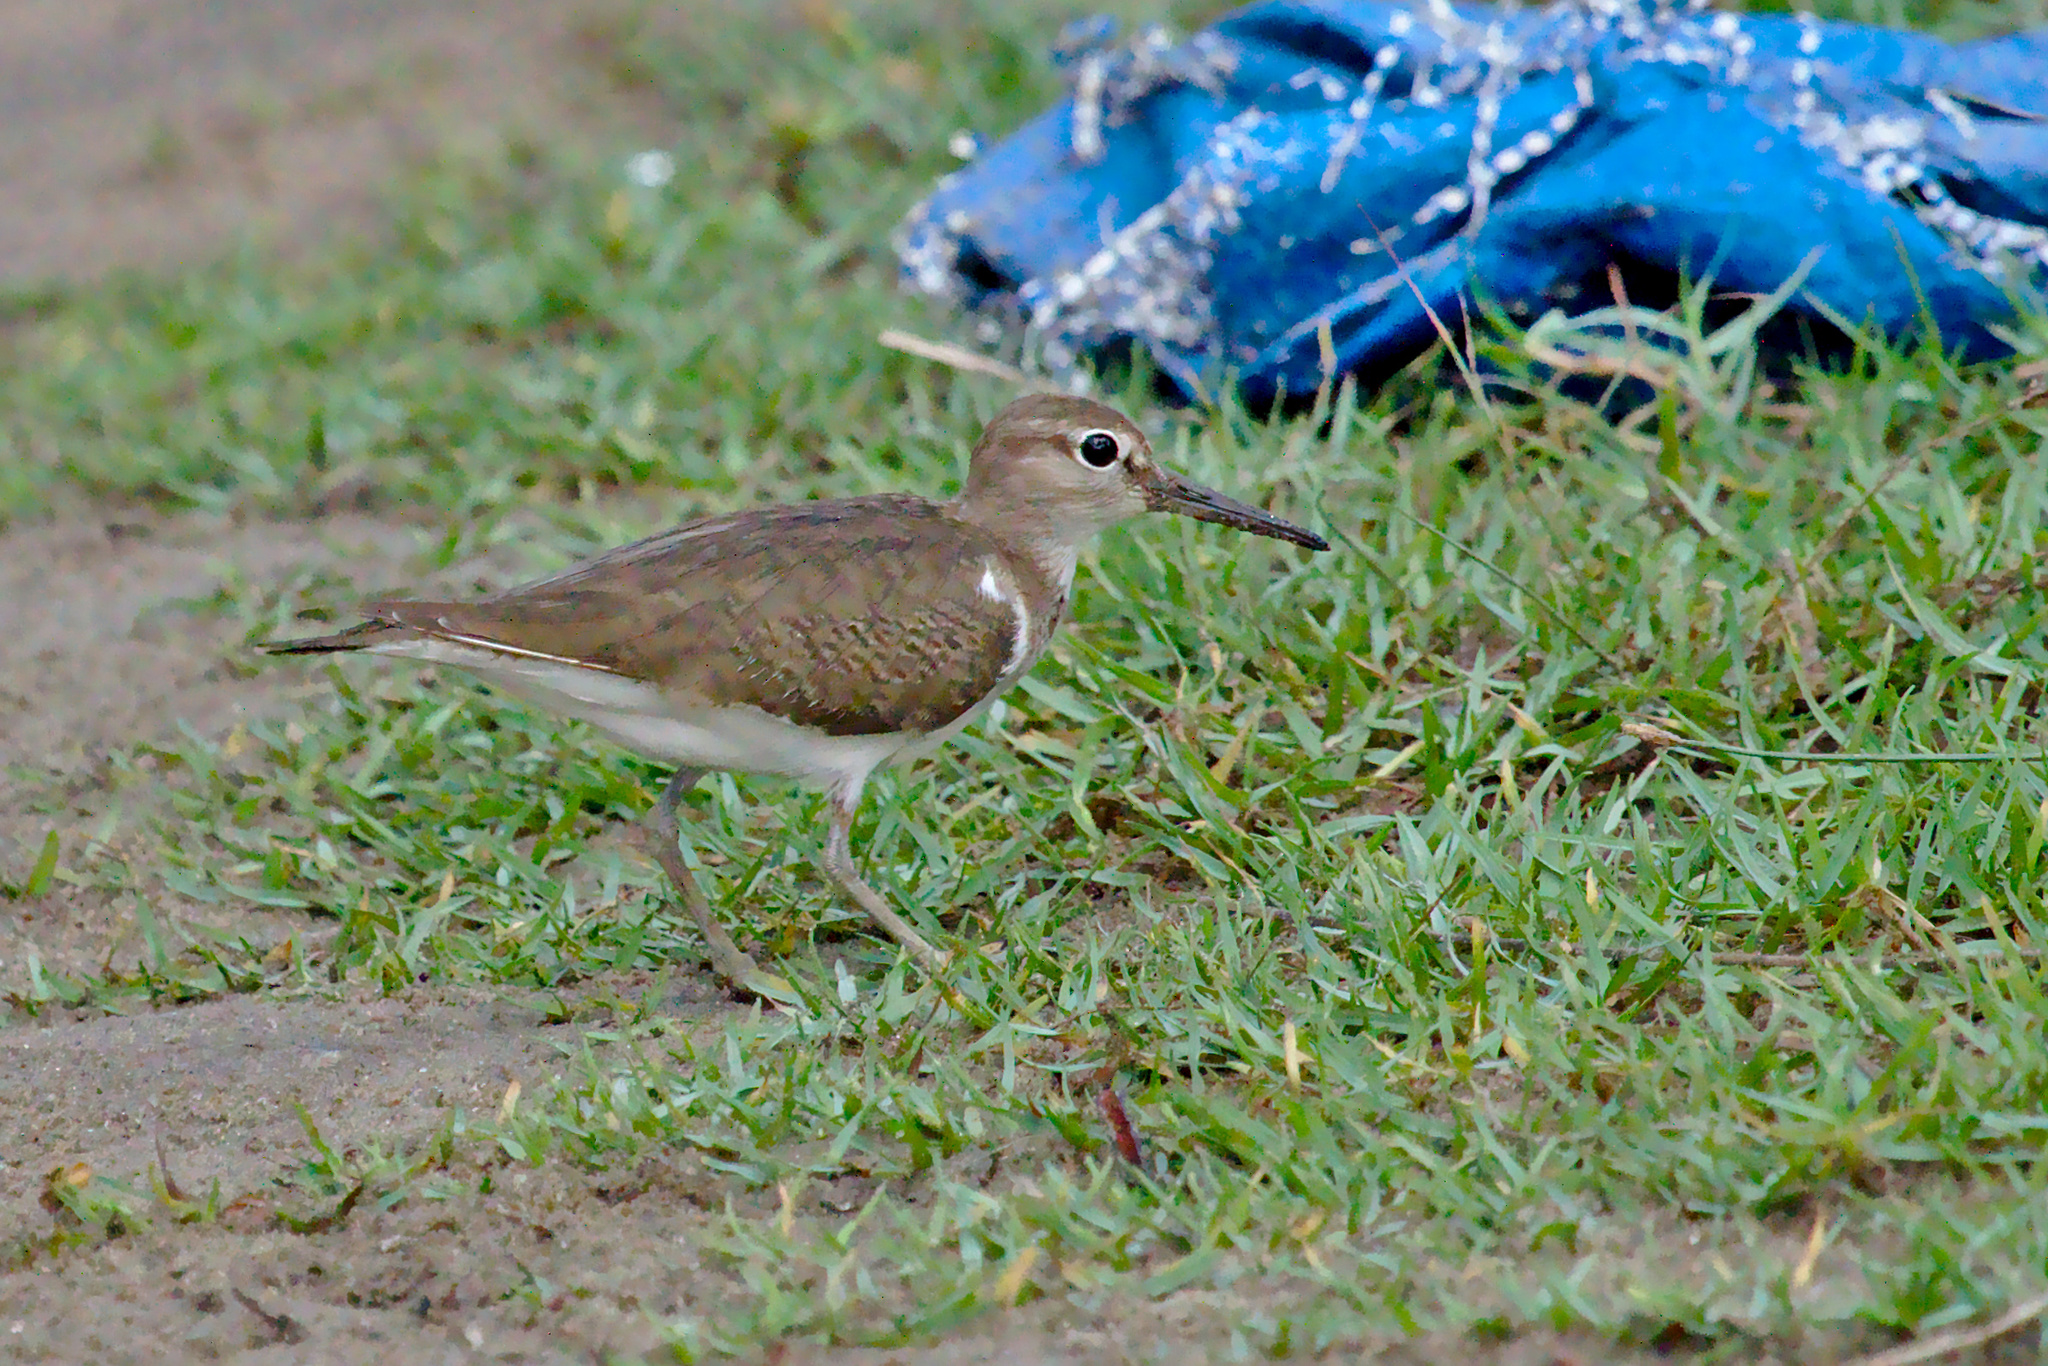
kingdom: Animalia
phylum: Chordata
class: Aves
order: Charadriiformes
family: Scolopacidae
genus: Actitis
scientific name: Actitis hypoleucos
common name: Common sandpiper
